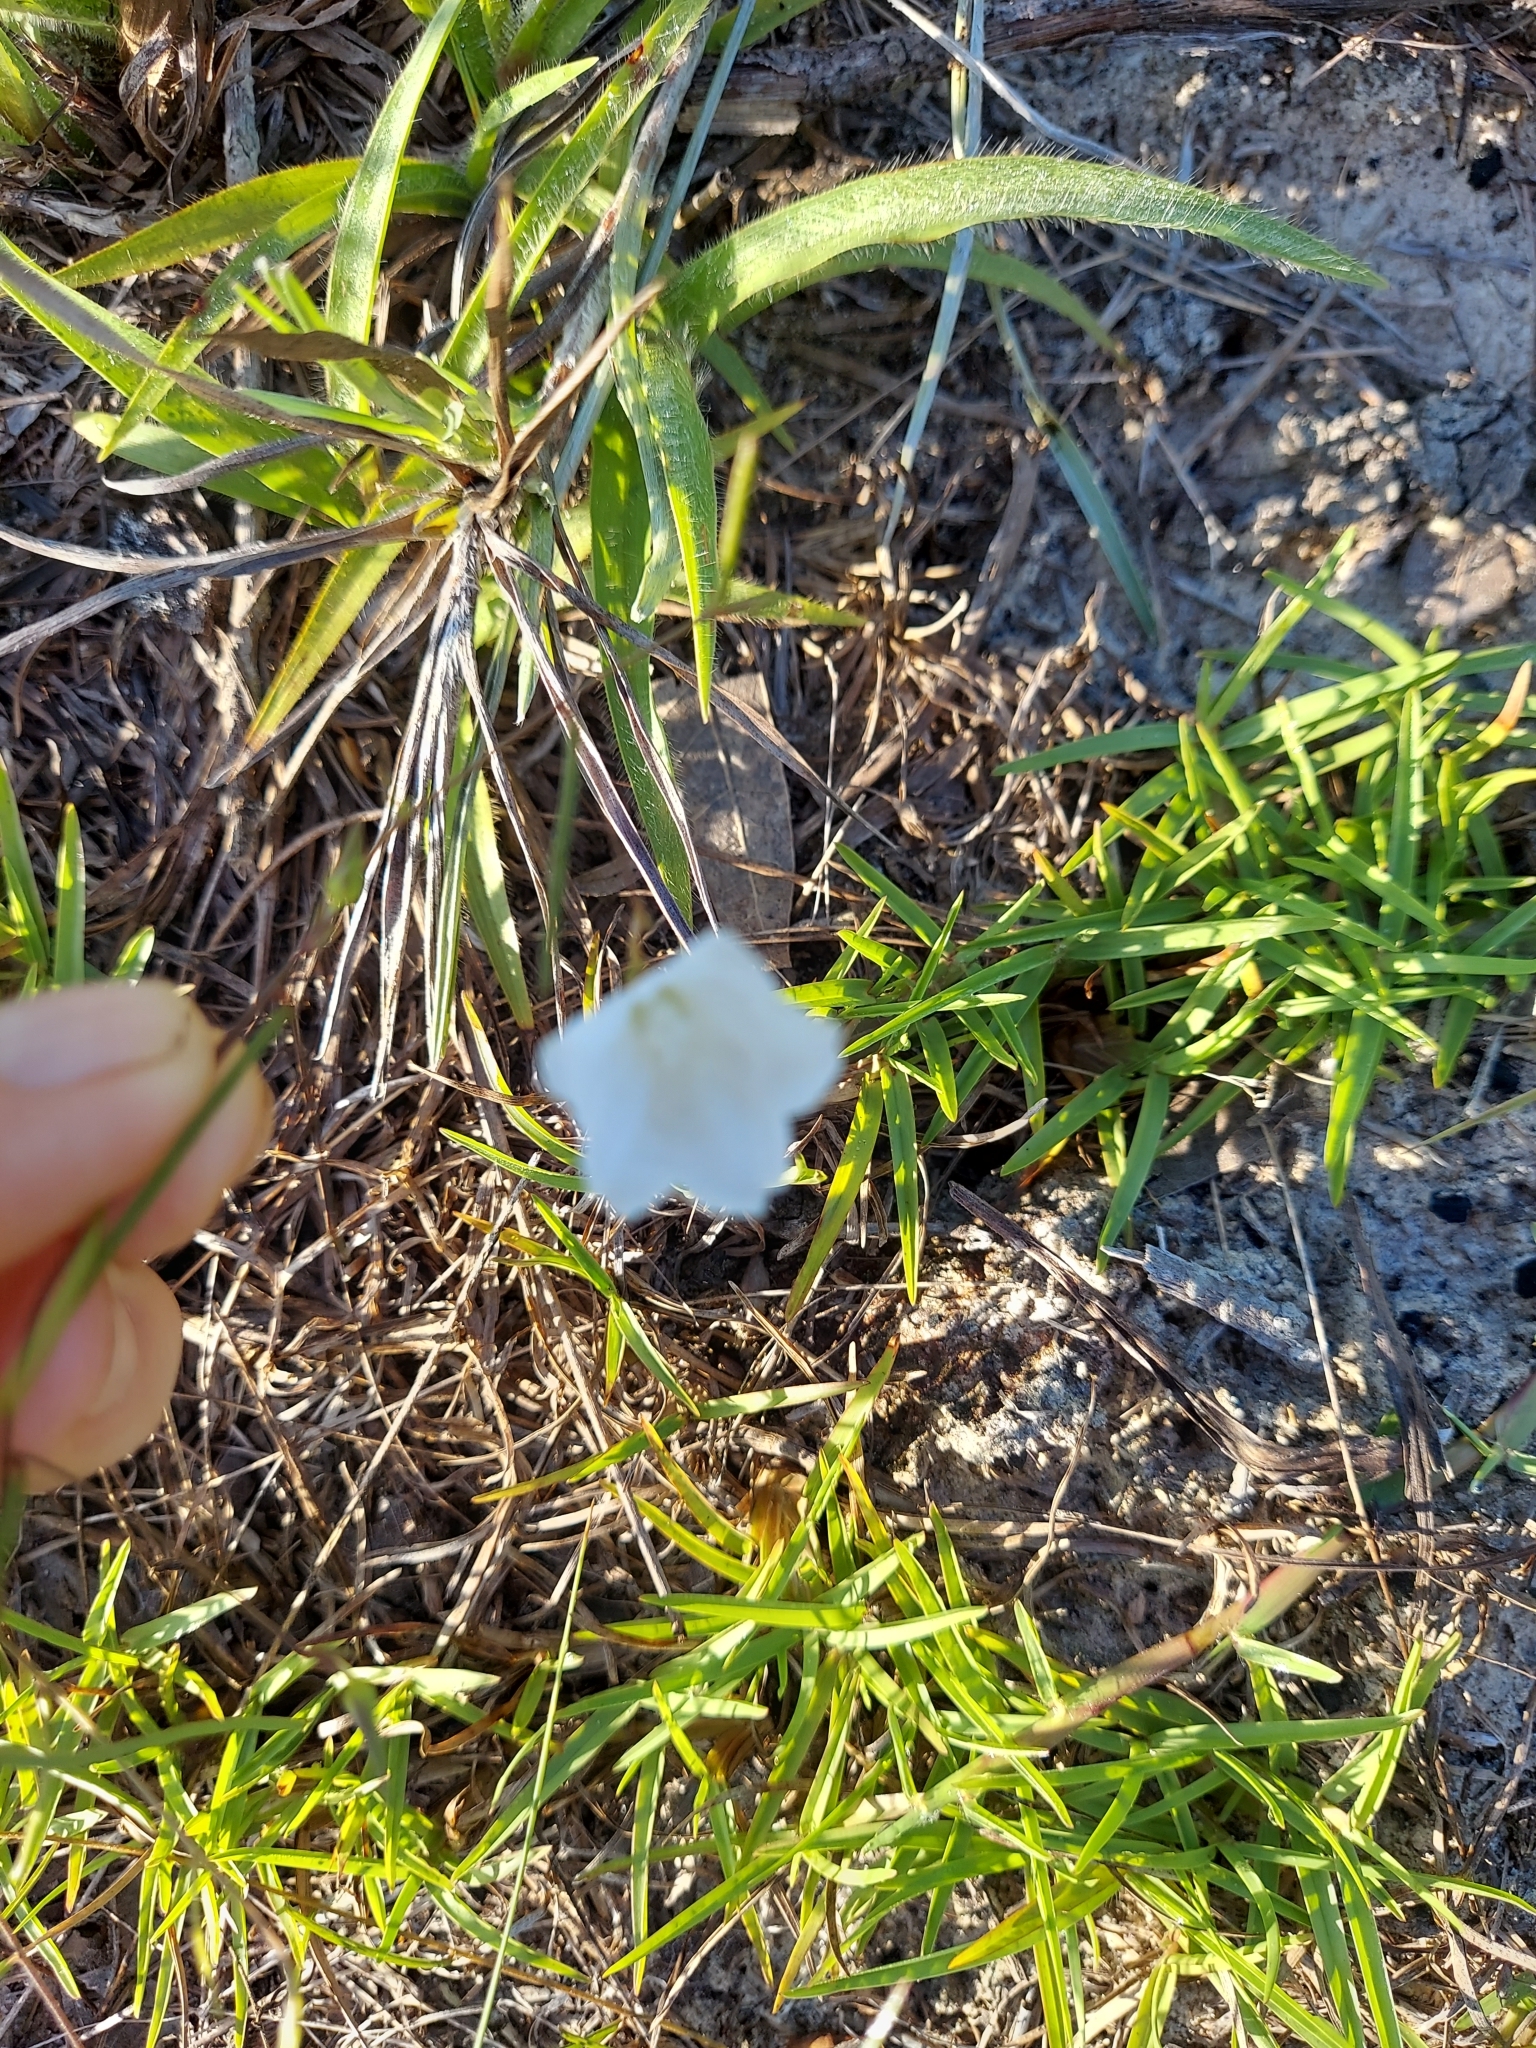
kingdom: Plantae
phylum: Tracheophyta
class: Magnoliopsida
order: Solanales
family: Convolvulaceae
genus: Stylisma
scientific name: Stylisma patens
